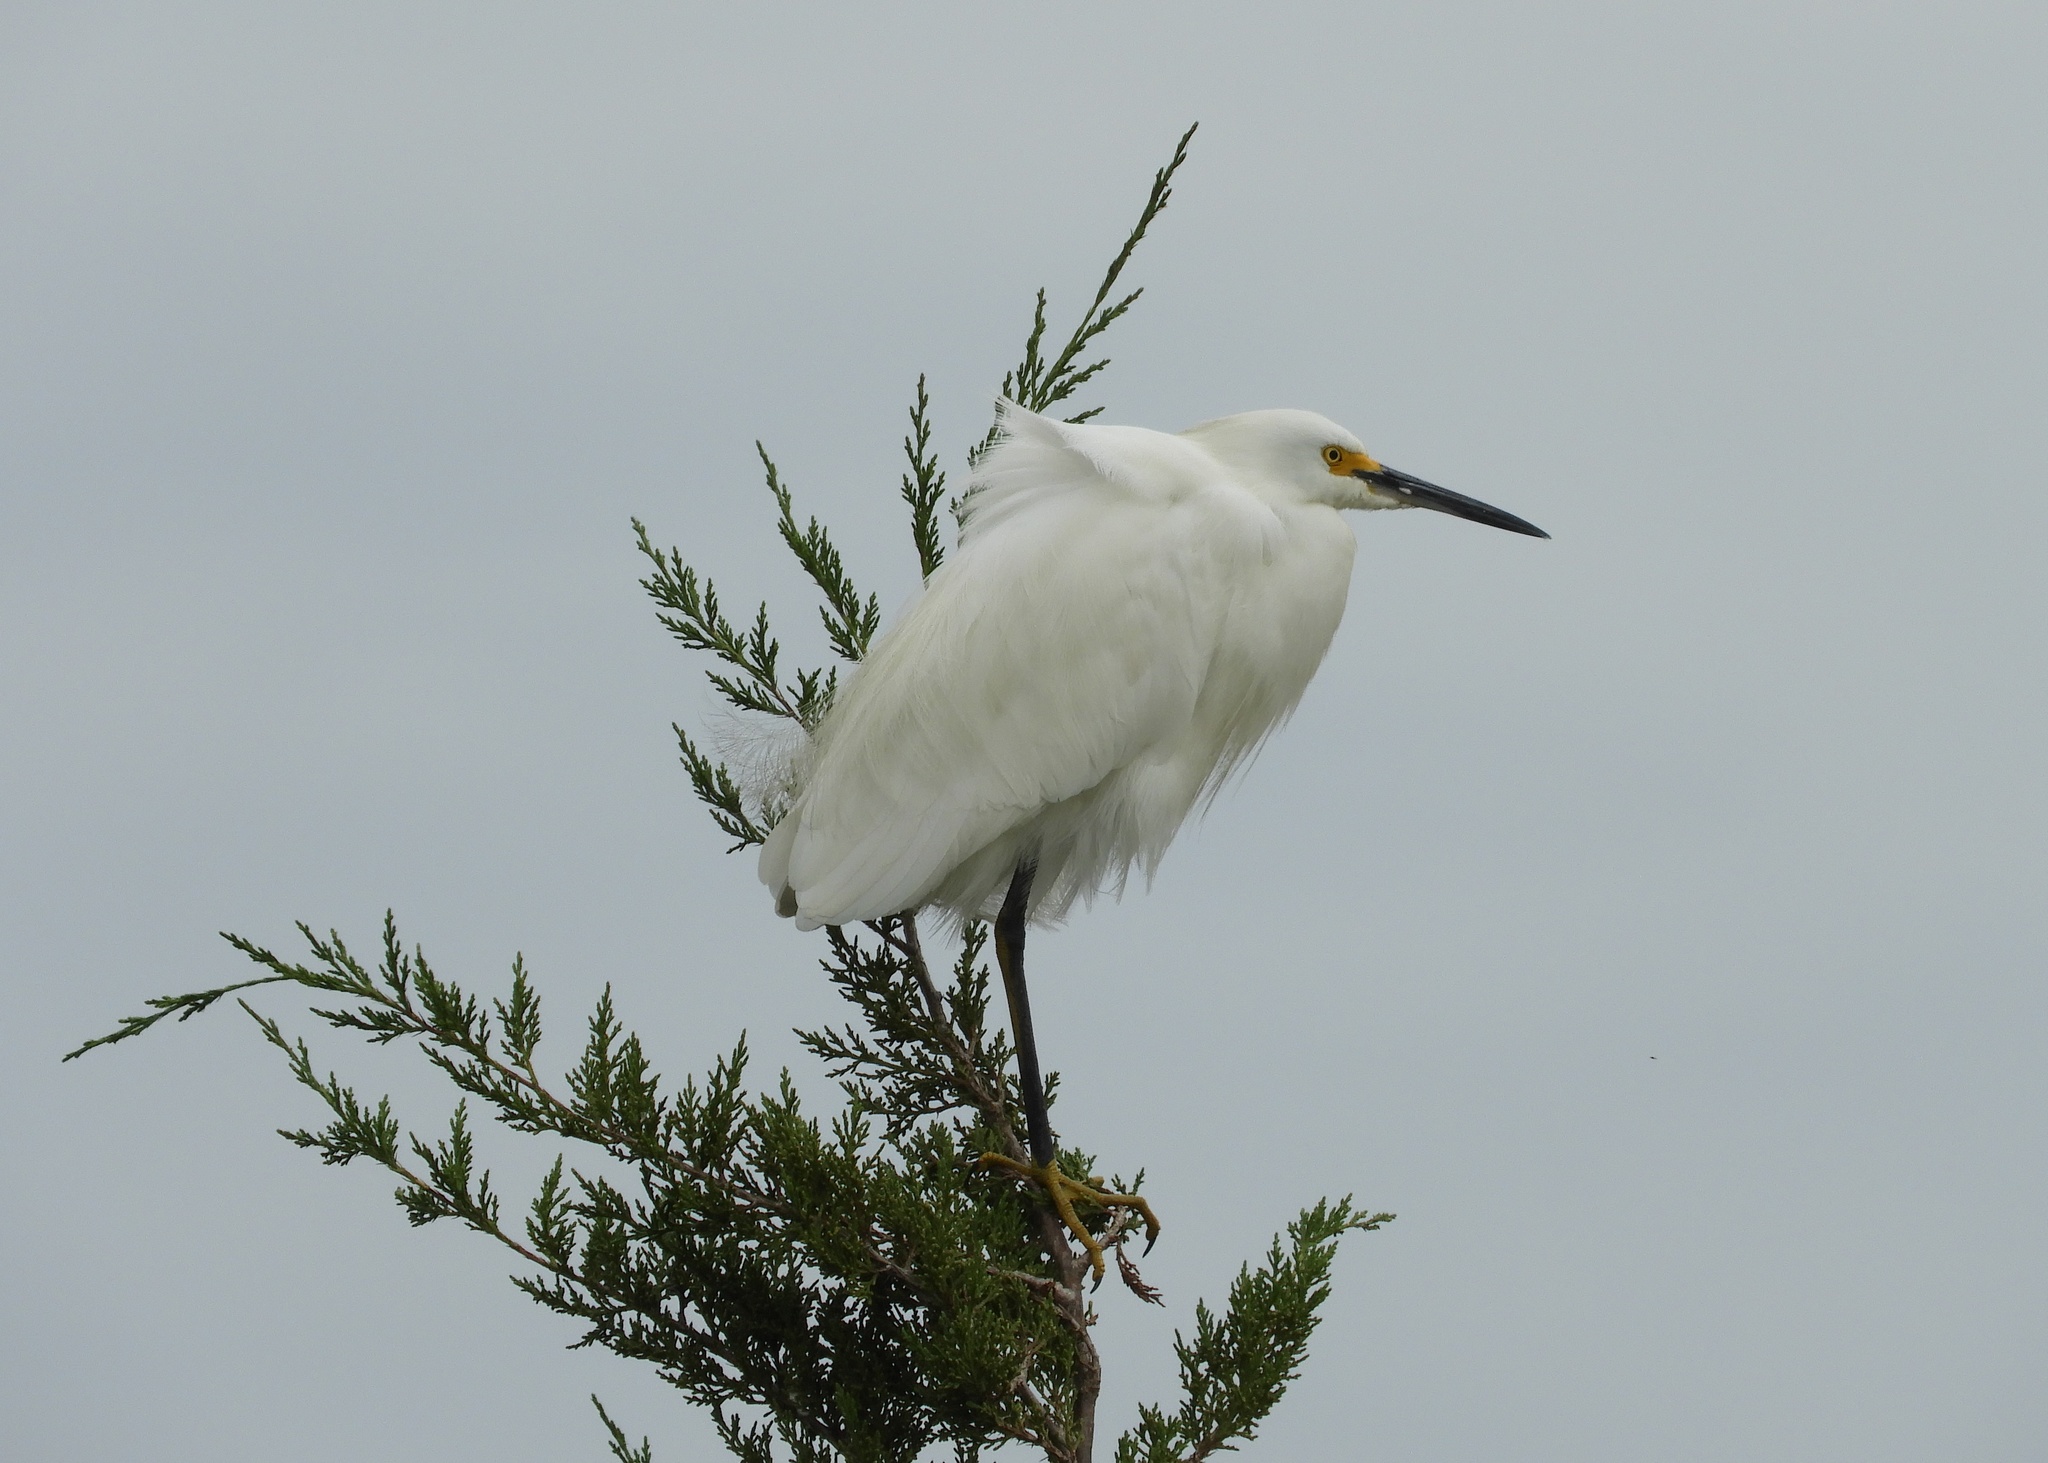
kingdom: Animalia
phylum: Chordata
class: Aves
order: Pelecaniformes
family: Ardeidae
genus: Egretta
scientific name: Egretta thula
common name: Snowy egret
